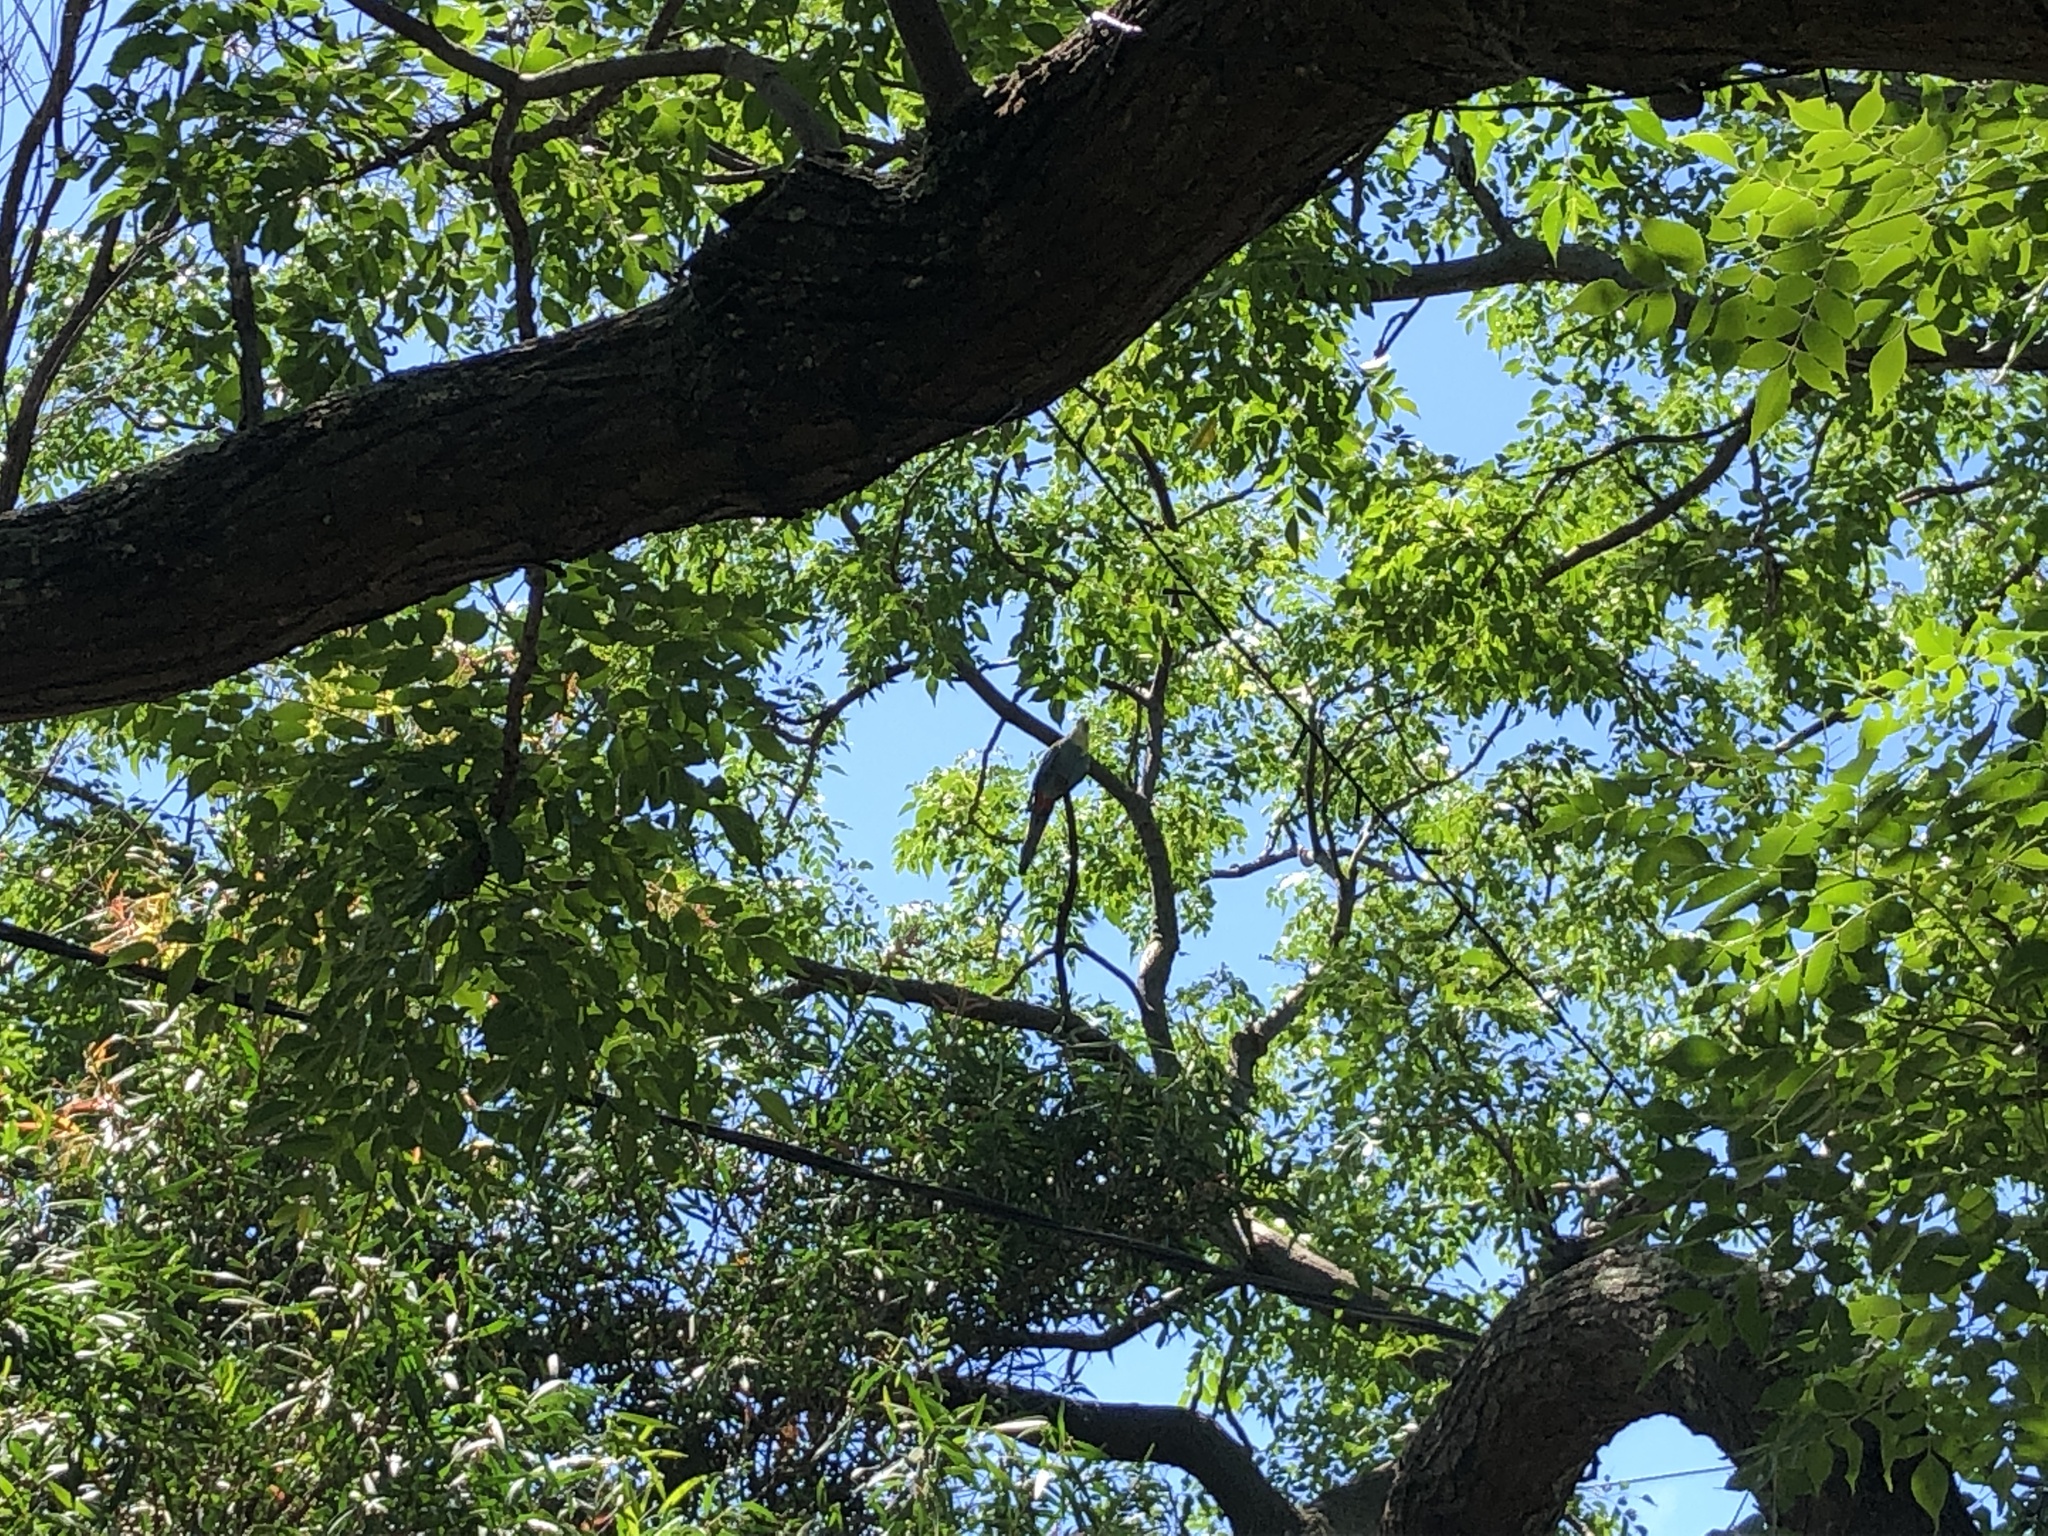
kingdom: Animalia
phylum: Chordata
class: Aves
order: Psittaciformes
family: Psittacidae
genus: Platycercus
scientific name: Platycercus adscitus
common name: Pale-headed rosella
